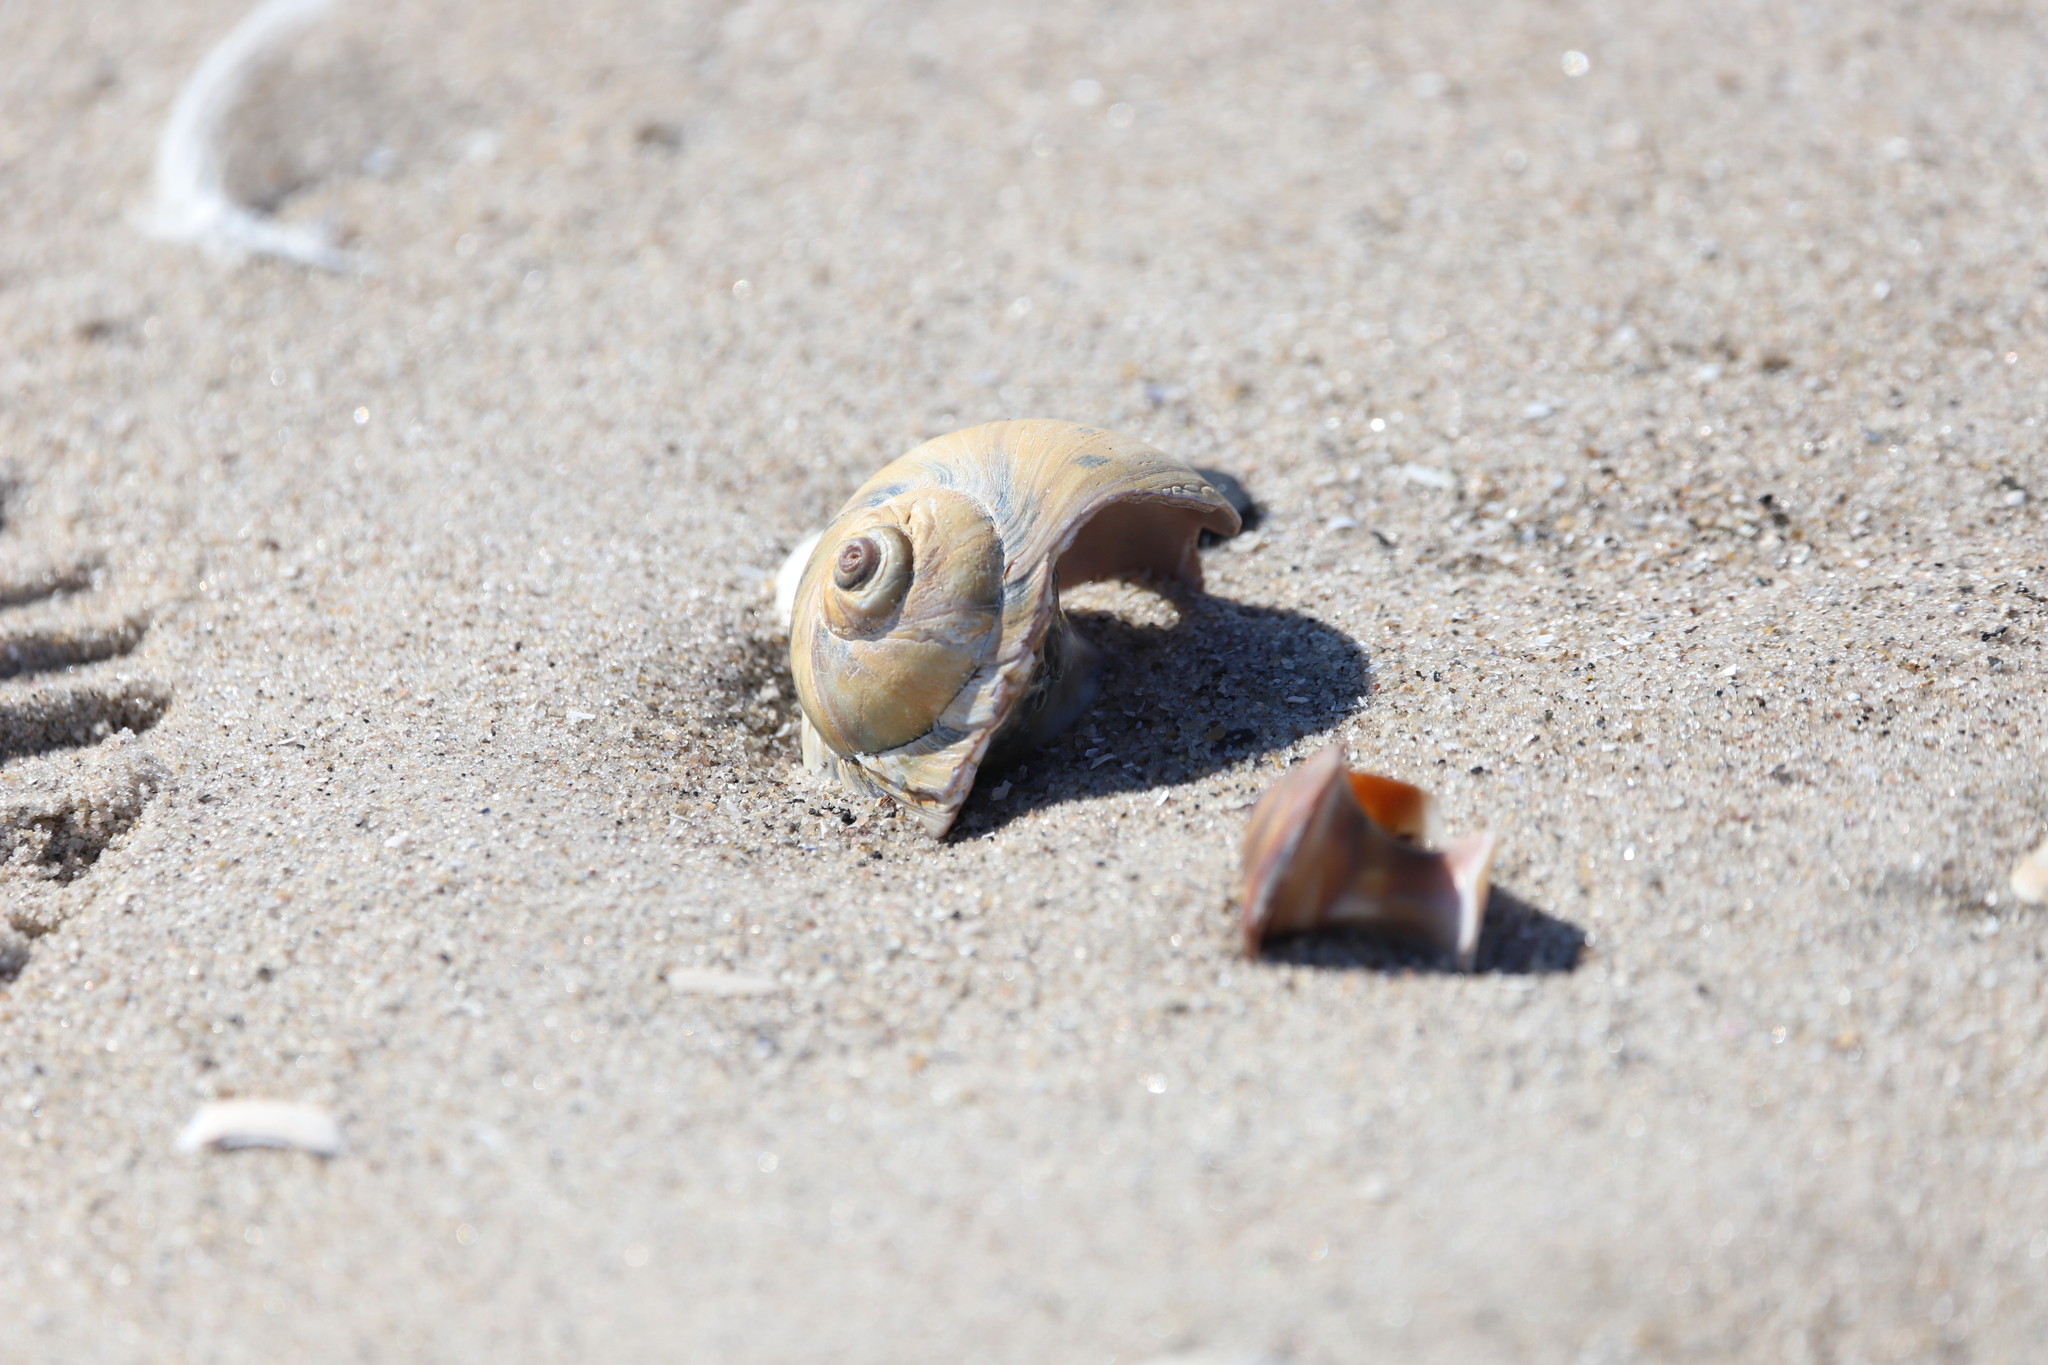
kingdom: Animalia
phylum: Mollusca
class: Gastropoda
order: Littorinimorpha
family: Naticidae
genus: Euspira
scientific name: Euspira heros
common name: Common northern moonsnail
